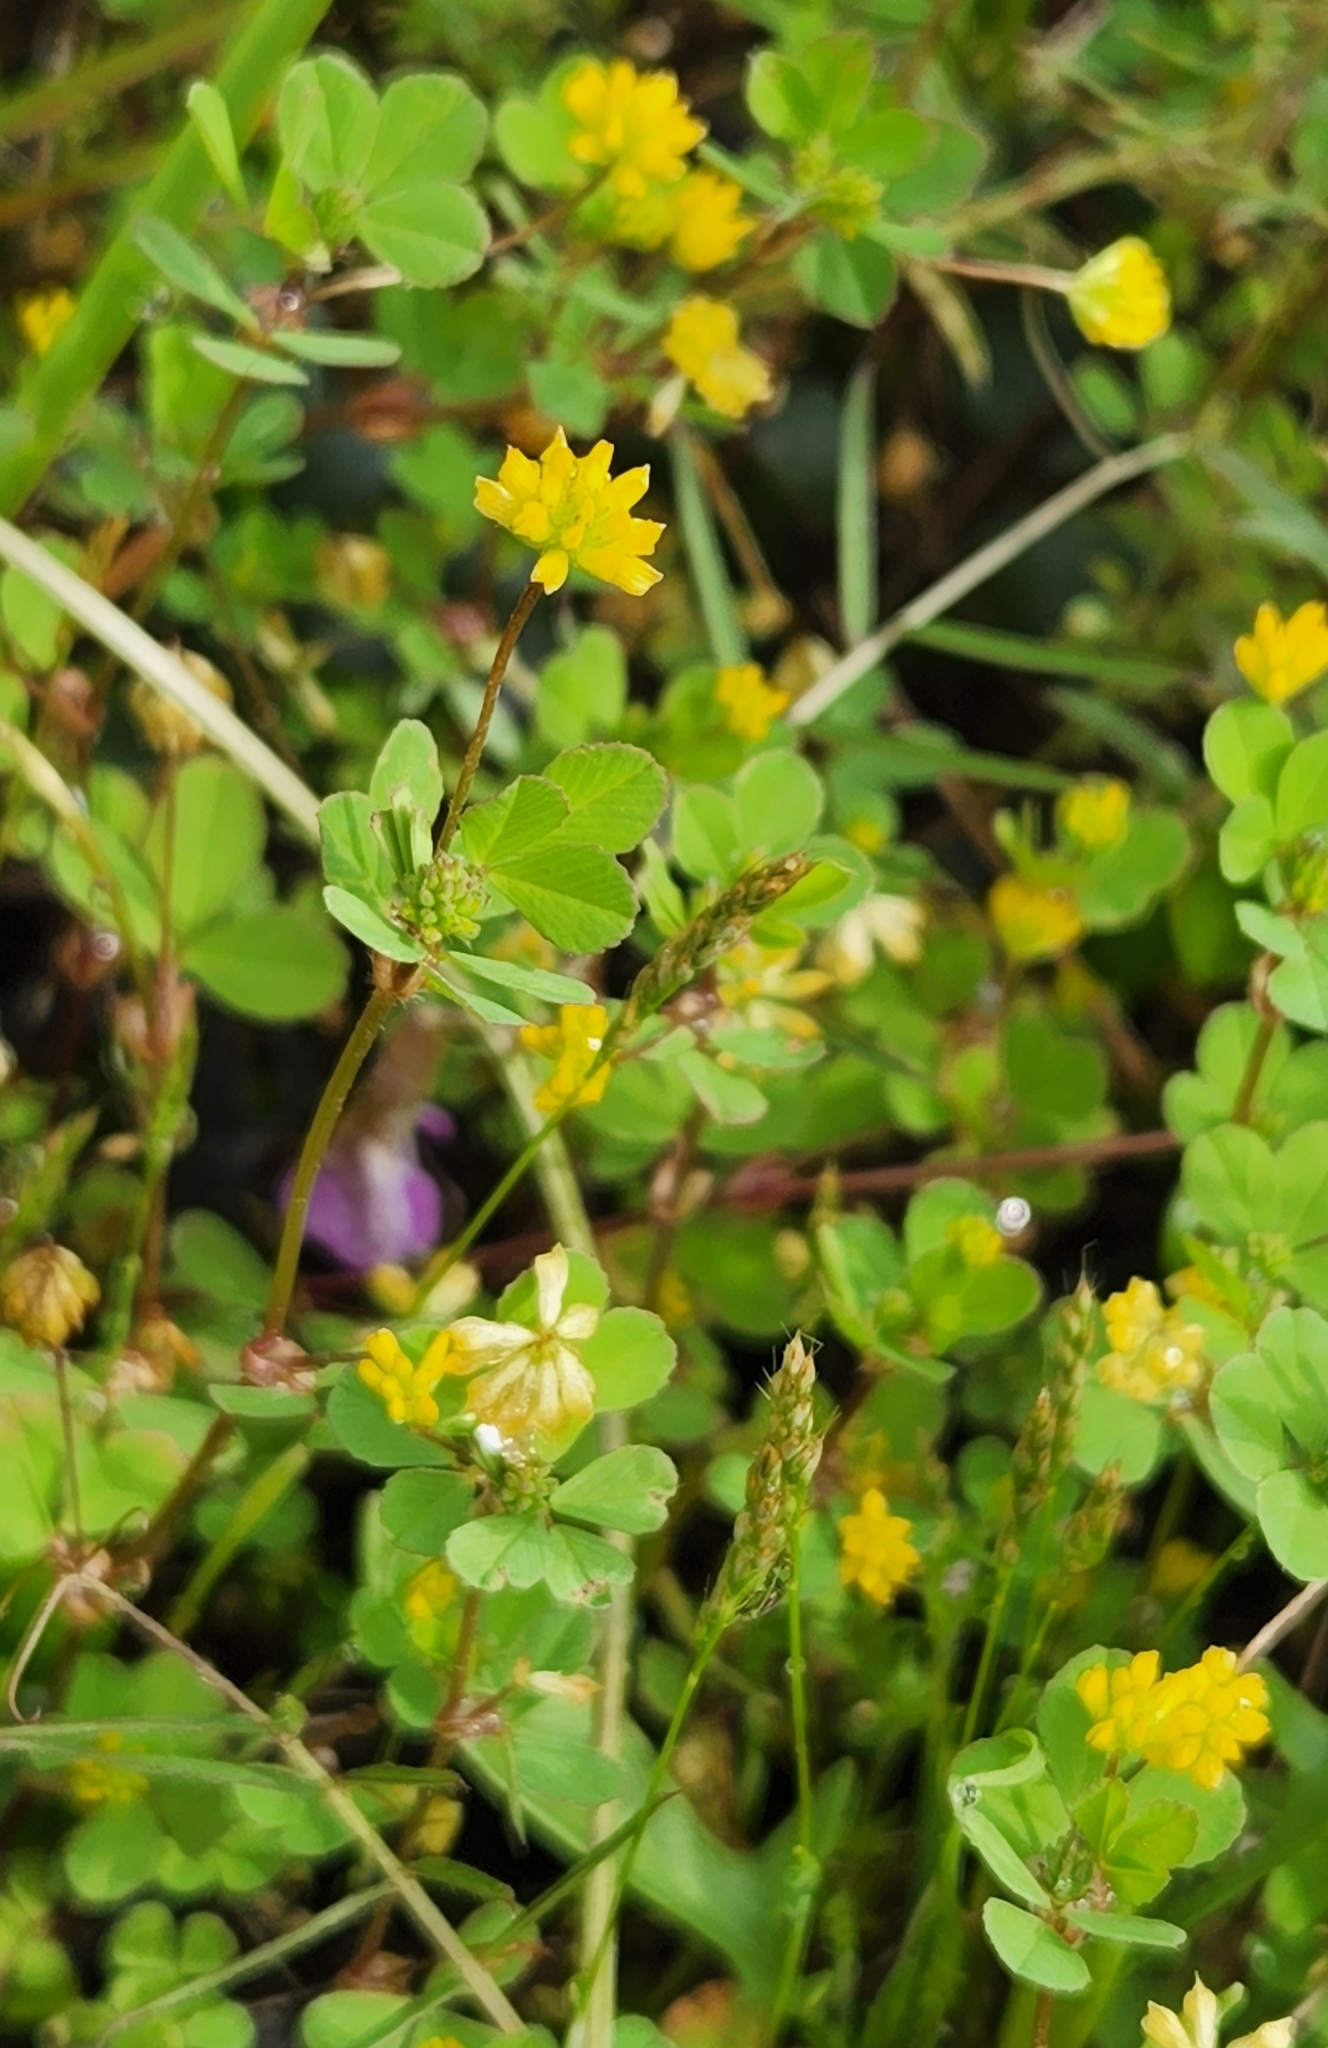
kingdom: Plantae
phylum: Tracheophyta
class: Magnoliopsida
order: Fabales
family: Fabaceae
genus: Trifolium
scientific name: Trifolium dubium
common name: Suckling clover
